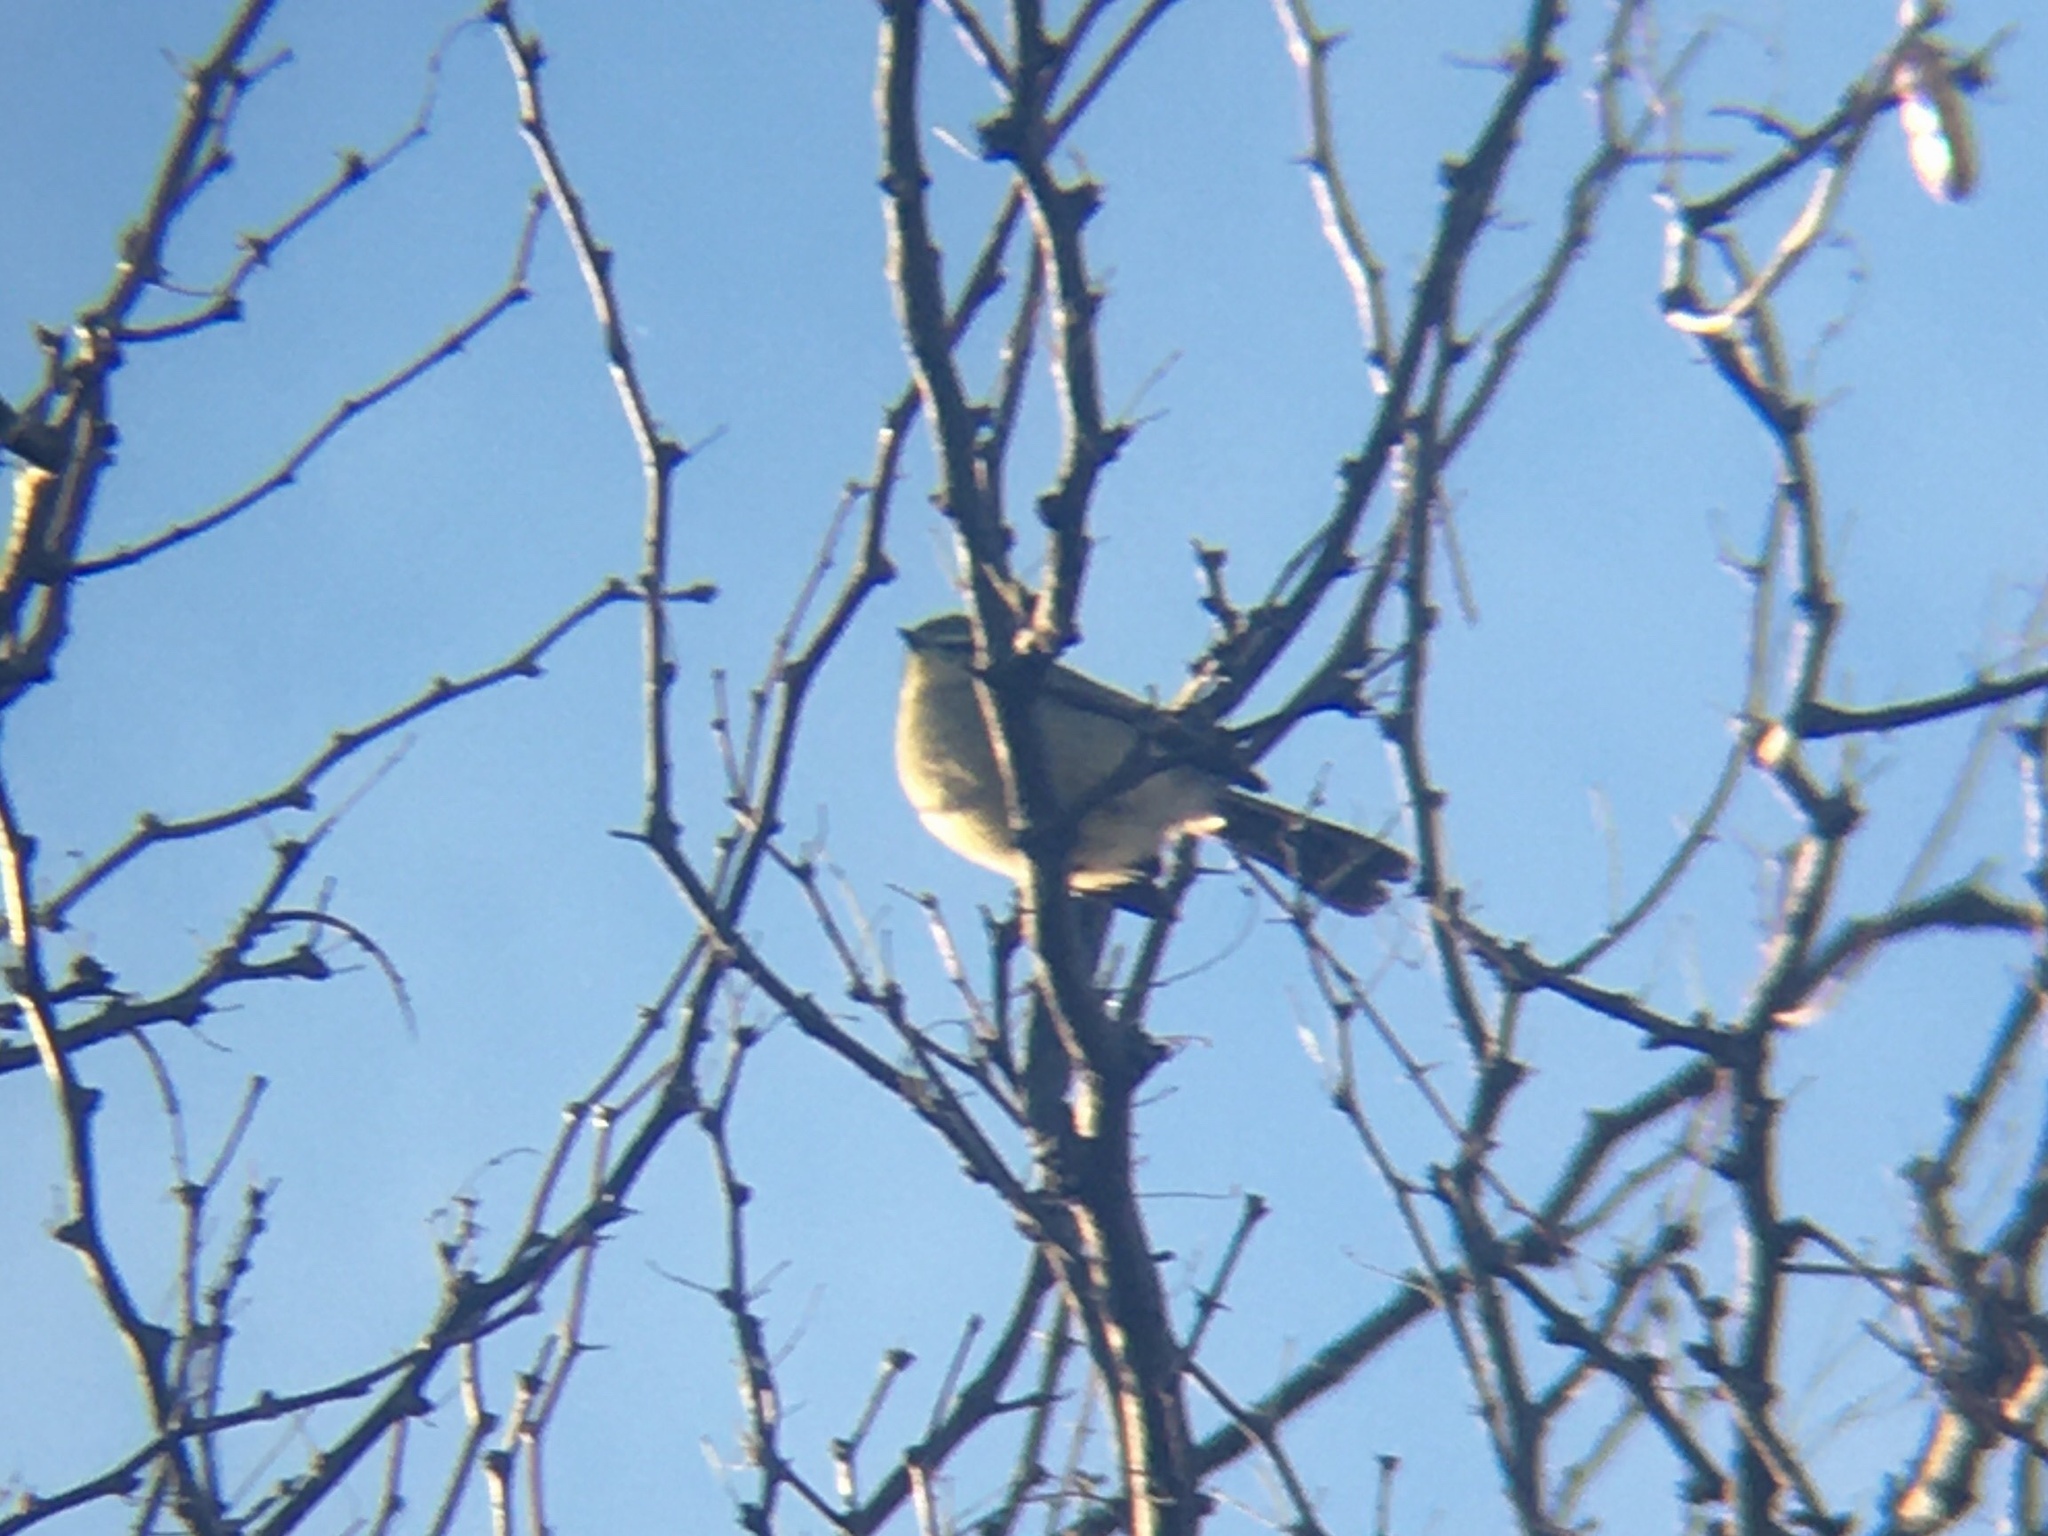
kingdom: Animalia
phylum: Chordata
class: Aves
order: Passeriformes
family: Tyrannidae
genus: Stigmatura
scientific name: Stigmatura budytoides
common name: Greater wagtail-tyrant
